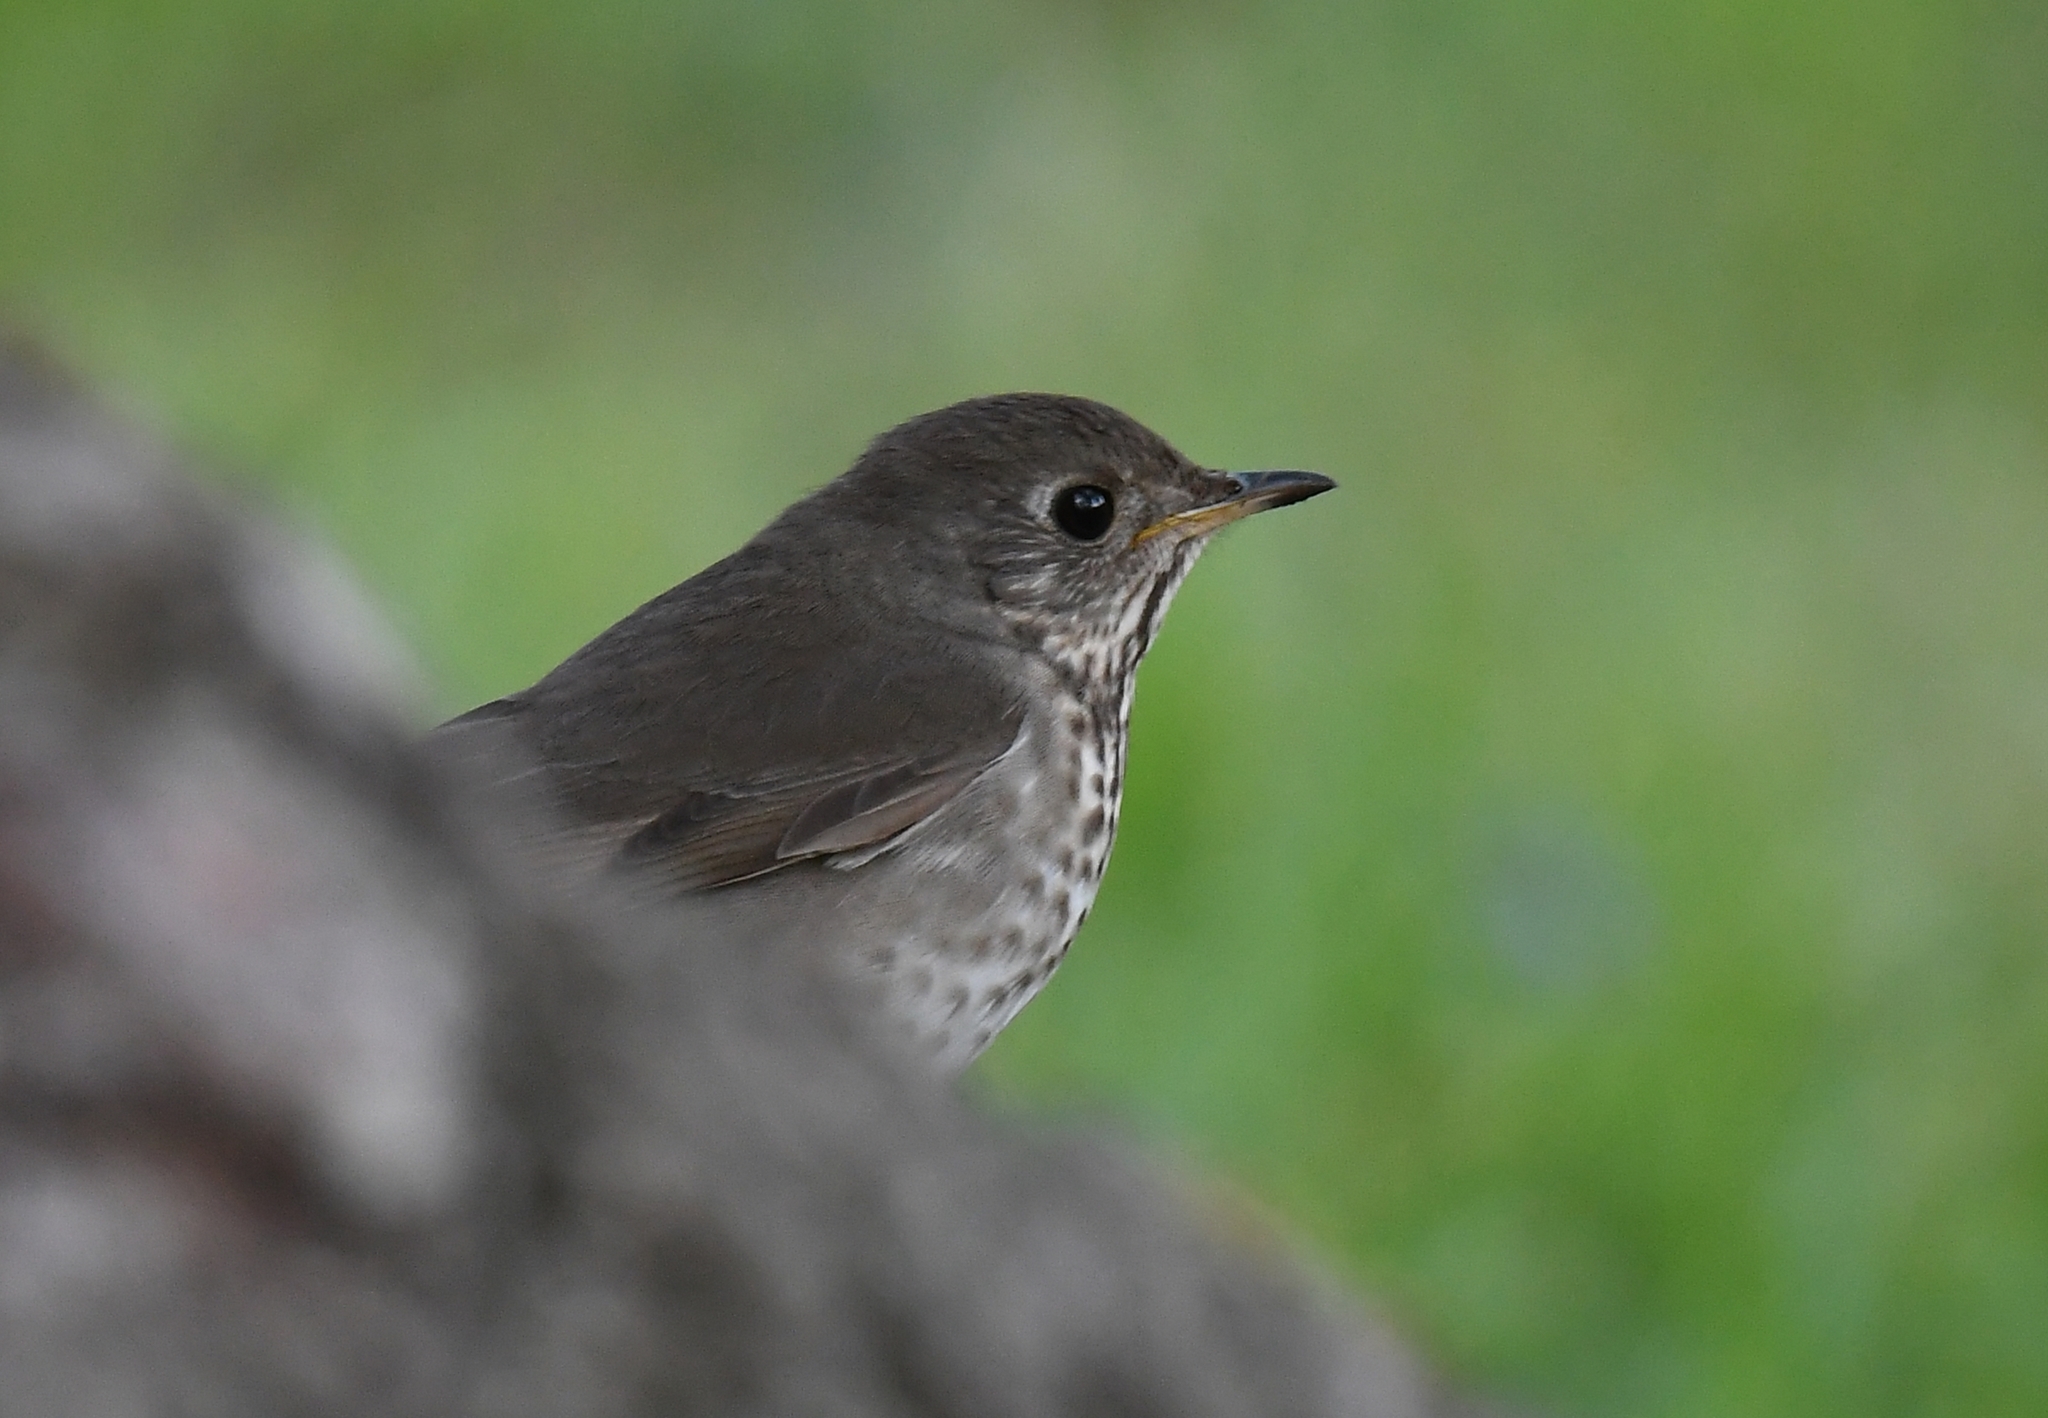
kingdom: Animalia
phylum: Chordata
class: Aves
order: Passeriformes
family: Turdidae
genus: Catharus
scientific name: Catharus minimus
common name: Grey-cheeked thrush
